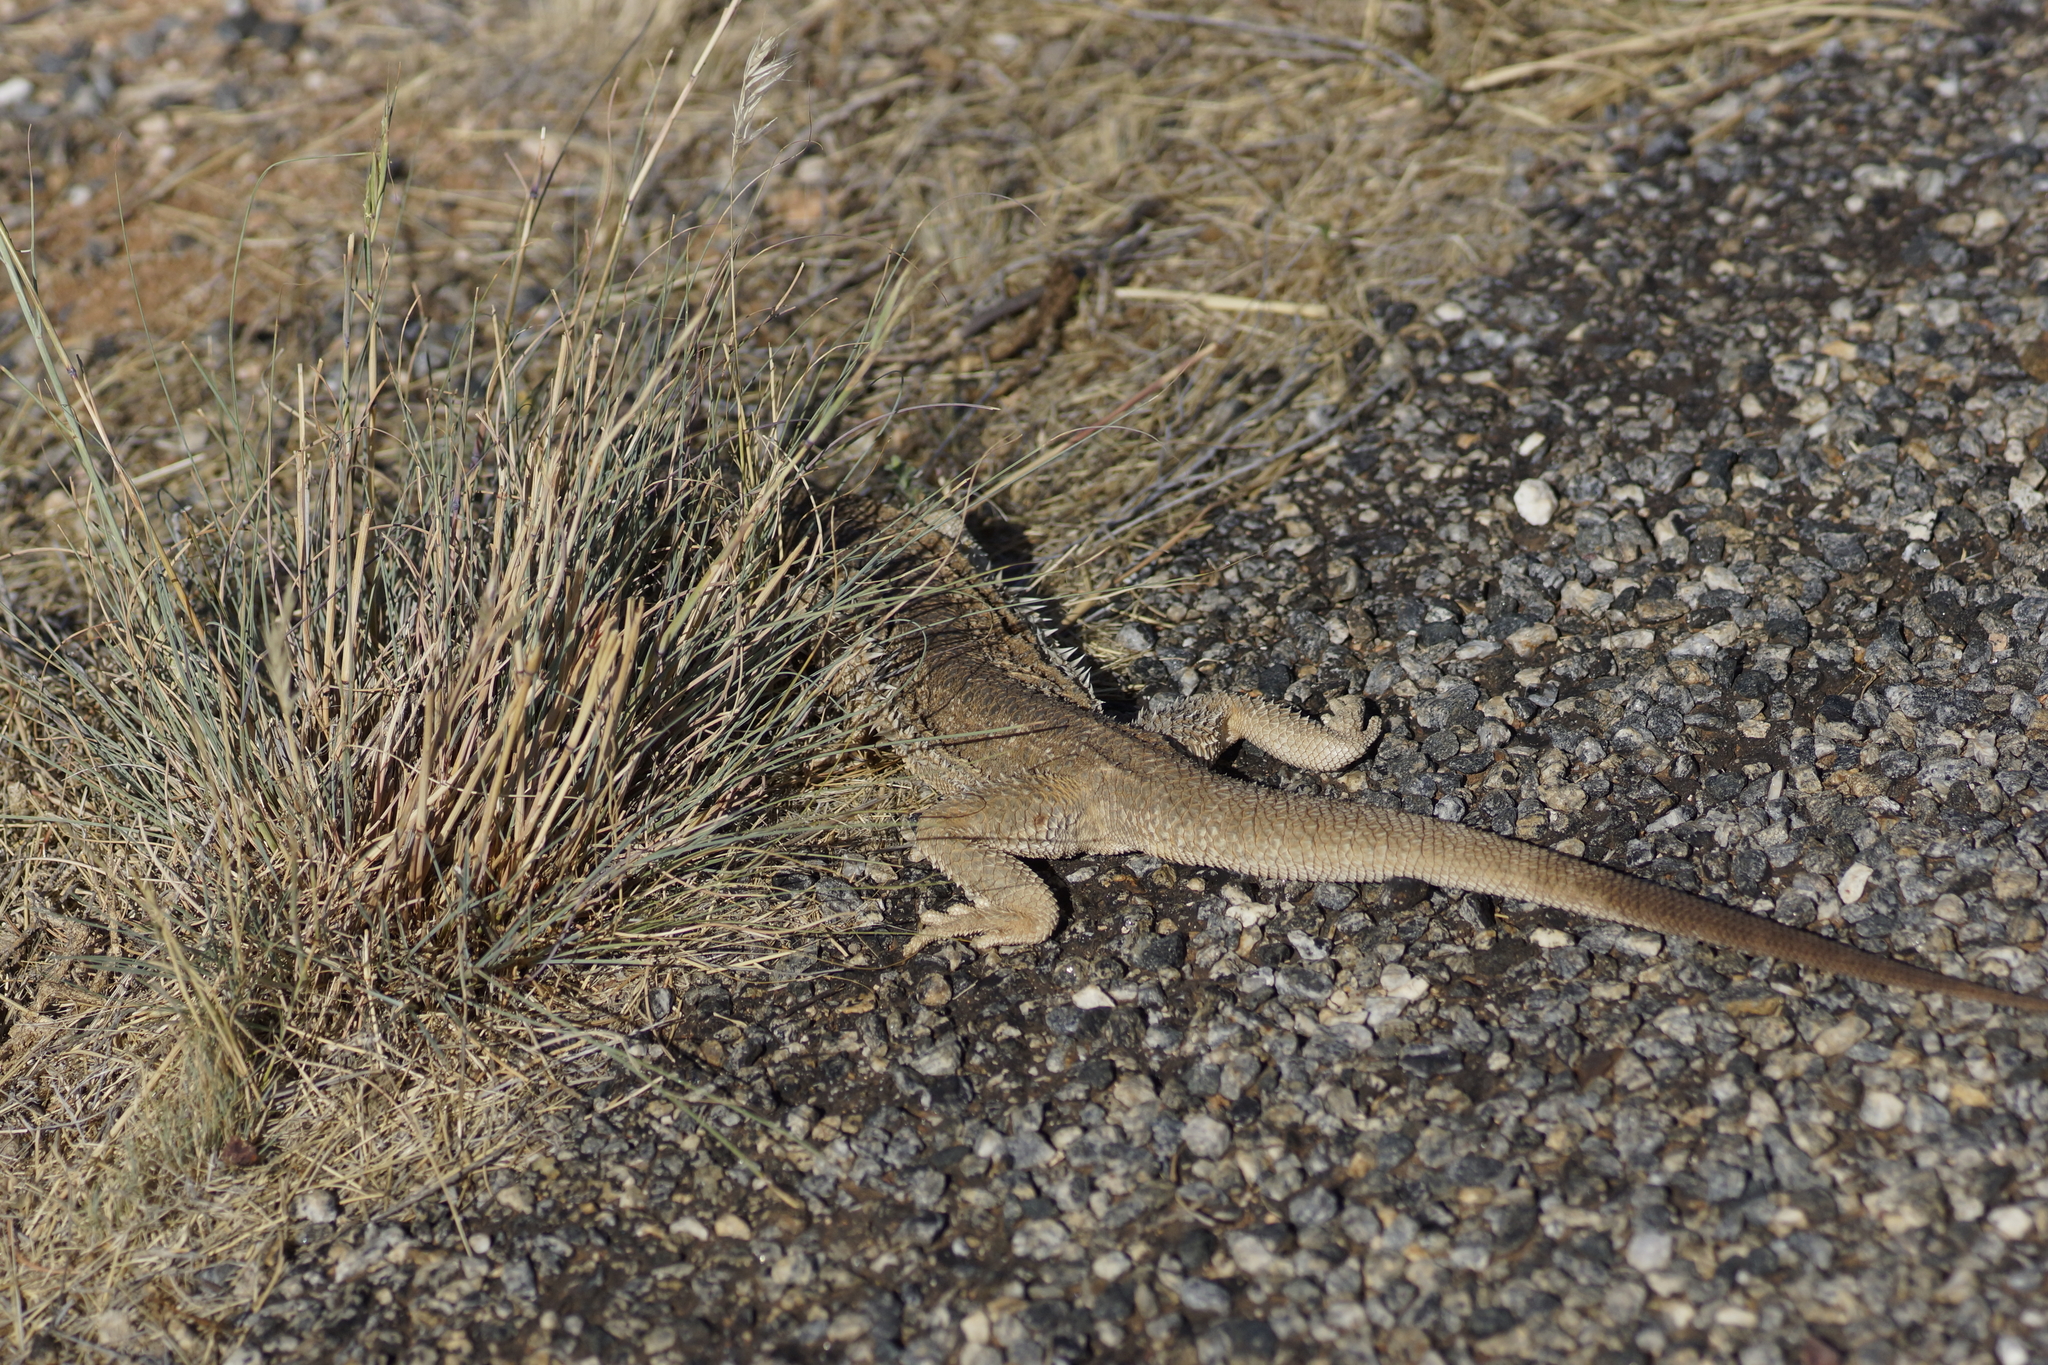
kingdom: Animalia
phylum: Chordata
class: Squamata
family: Agamidae
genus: Pogona
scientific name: Pogona vitticeps
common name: Central bearded dragon
